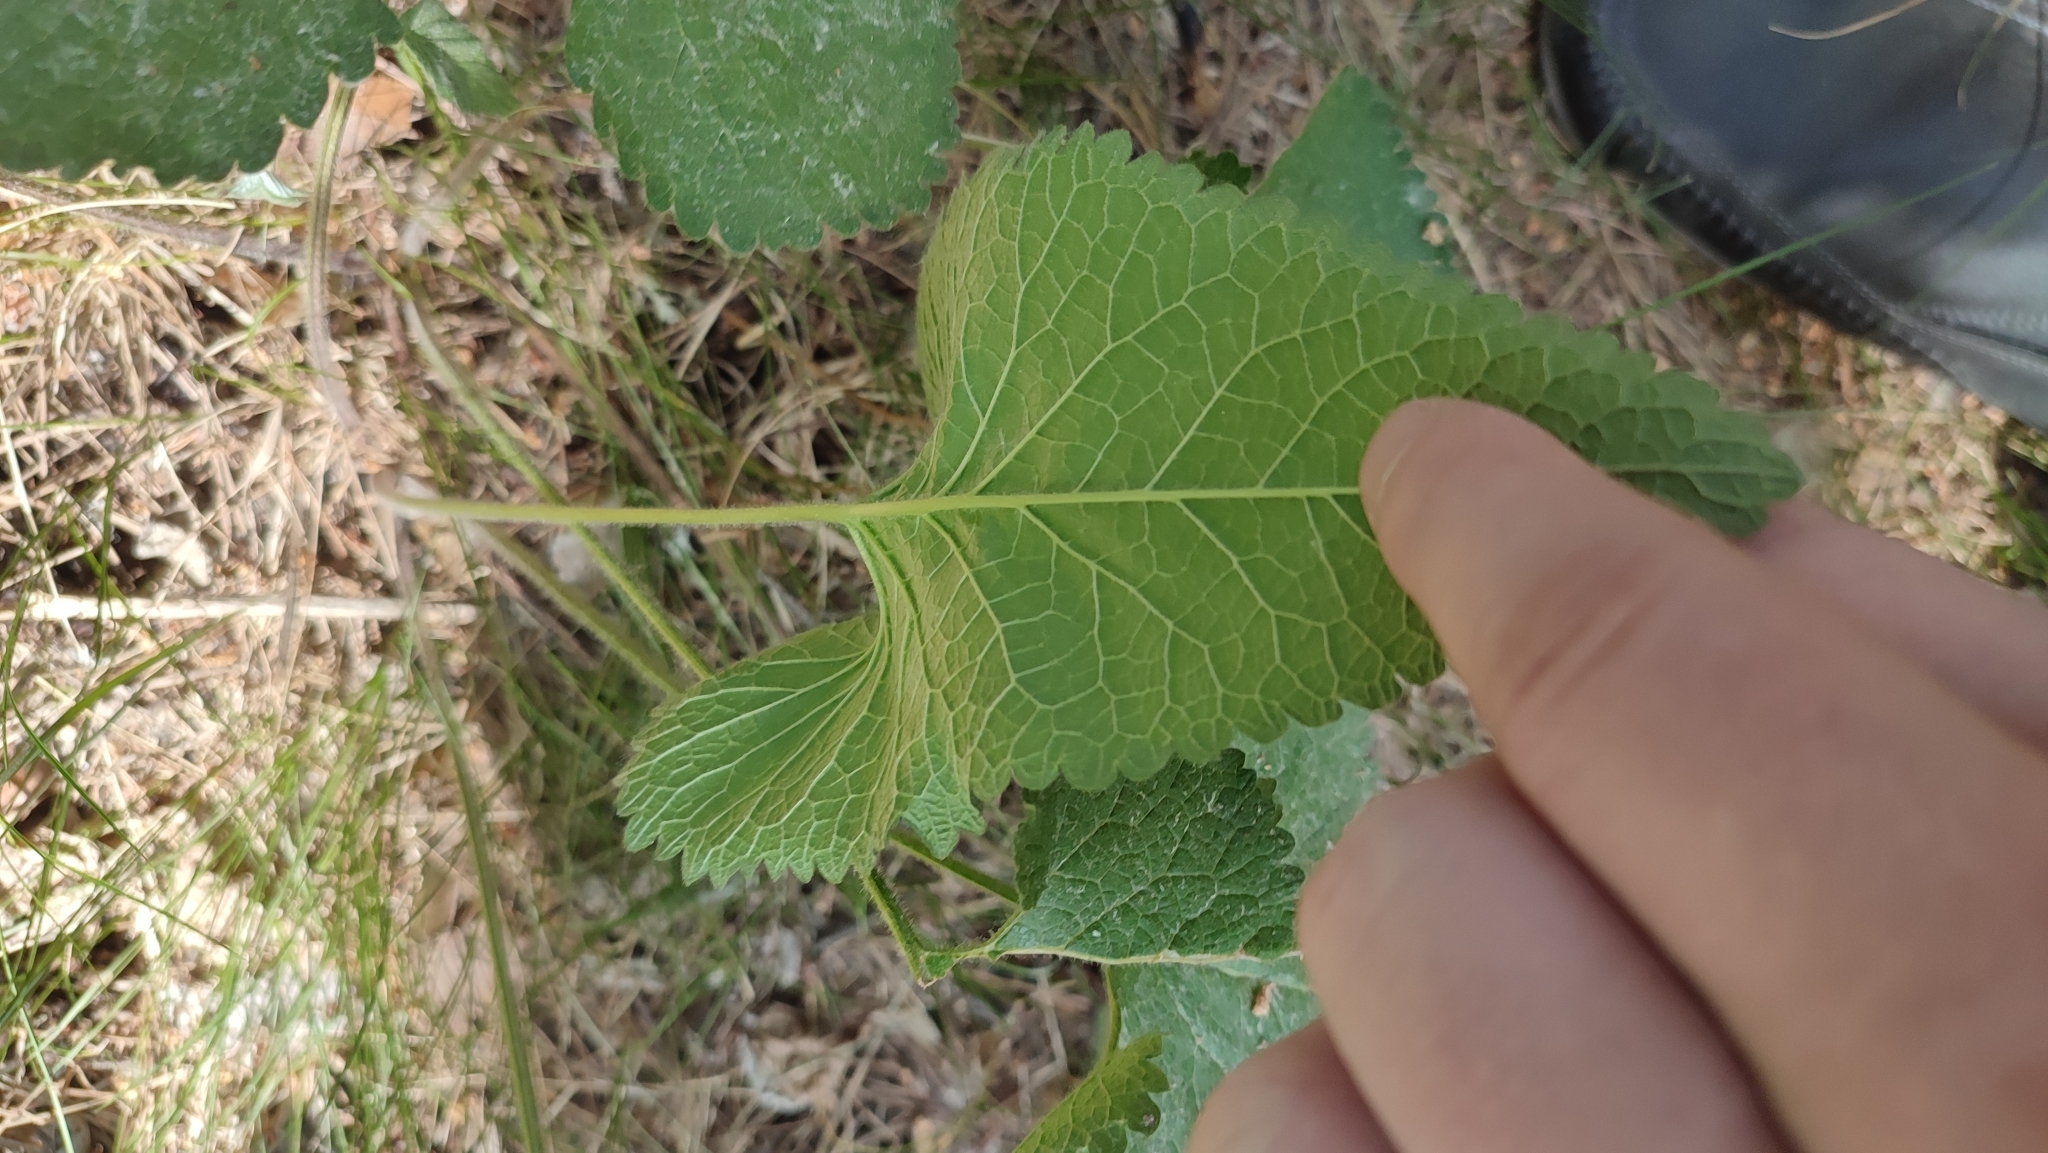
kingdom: Plantae
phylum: Tracheophyta
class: Magnoliopsida
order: Lamiales
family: Lamiaceae
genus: Phlomoides
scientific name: Phlomoides tuberosa
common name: Tuberous jerusalem sage
